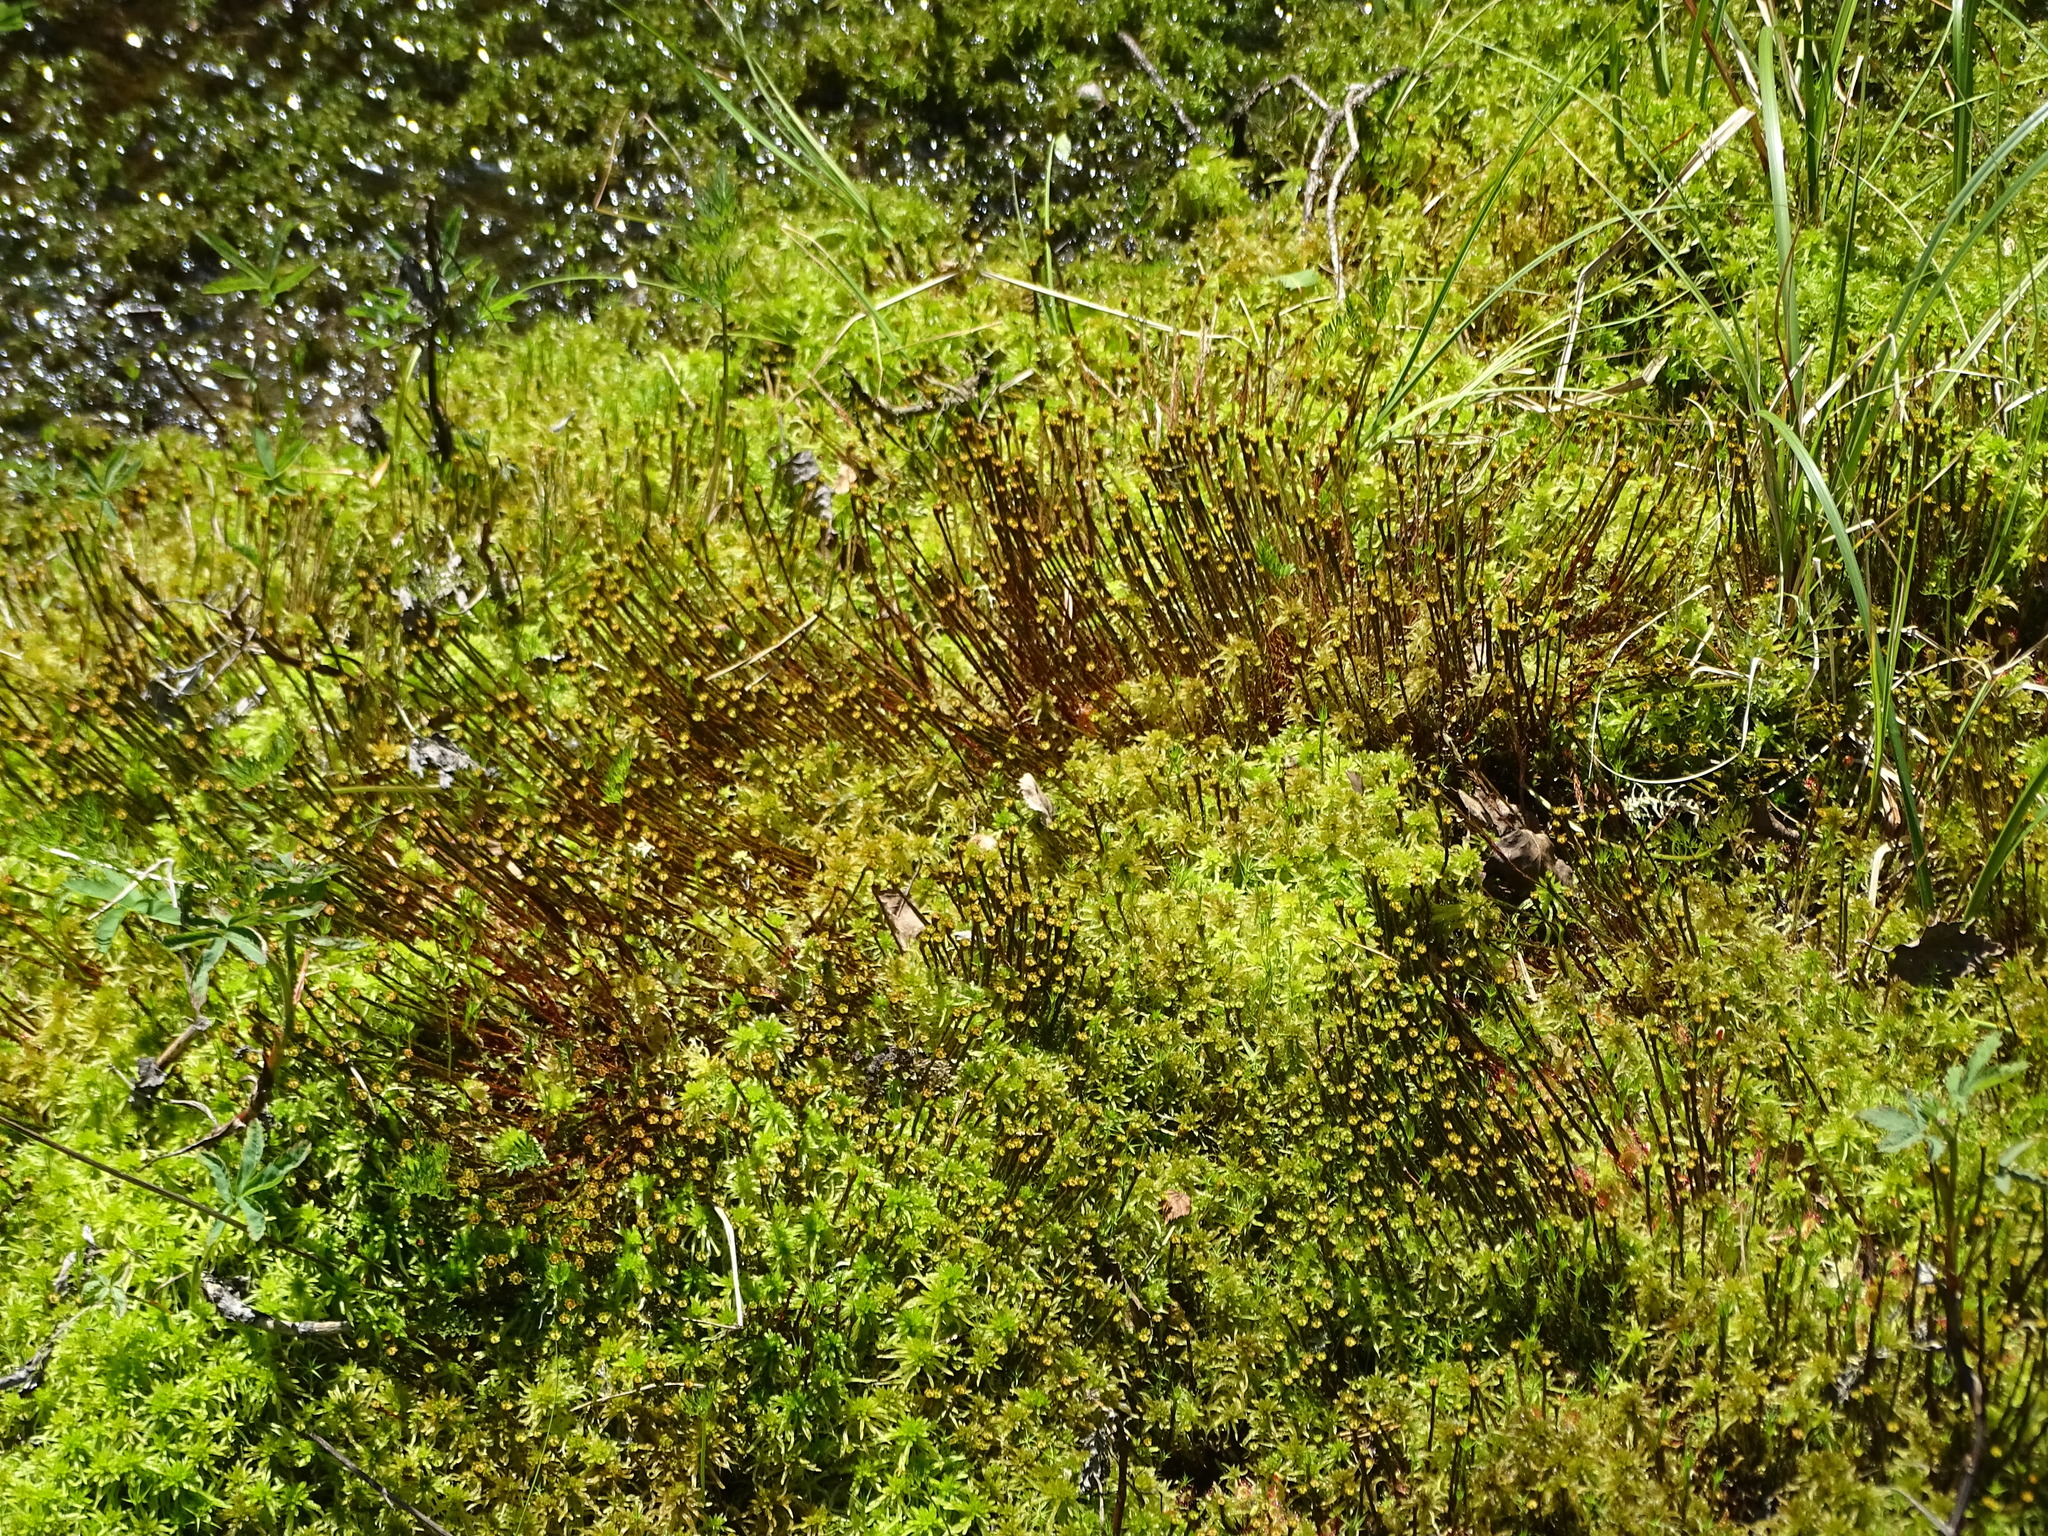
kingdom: Plantae
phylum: Bryophyta
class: Polytrichopsida
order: Polytrichales
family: Polytrichaceae
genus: Polytrichum
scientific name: Polytrichum commune
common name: Common haircap
